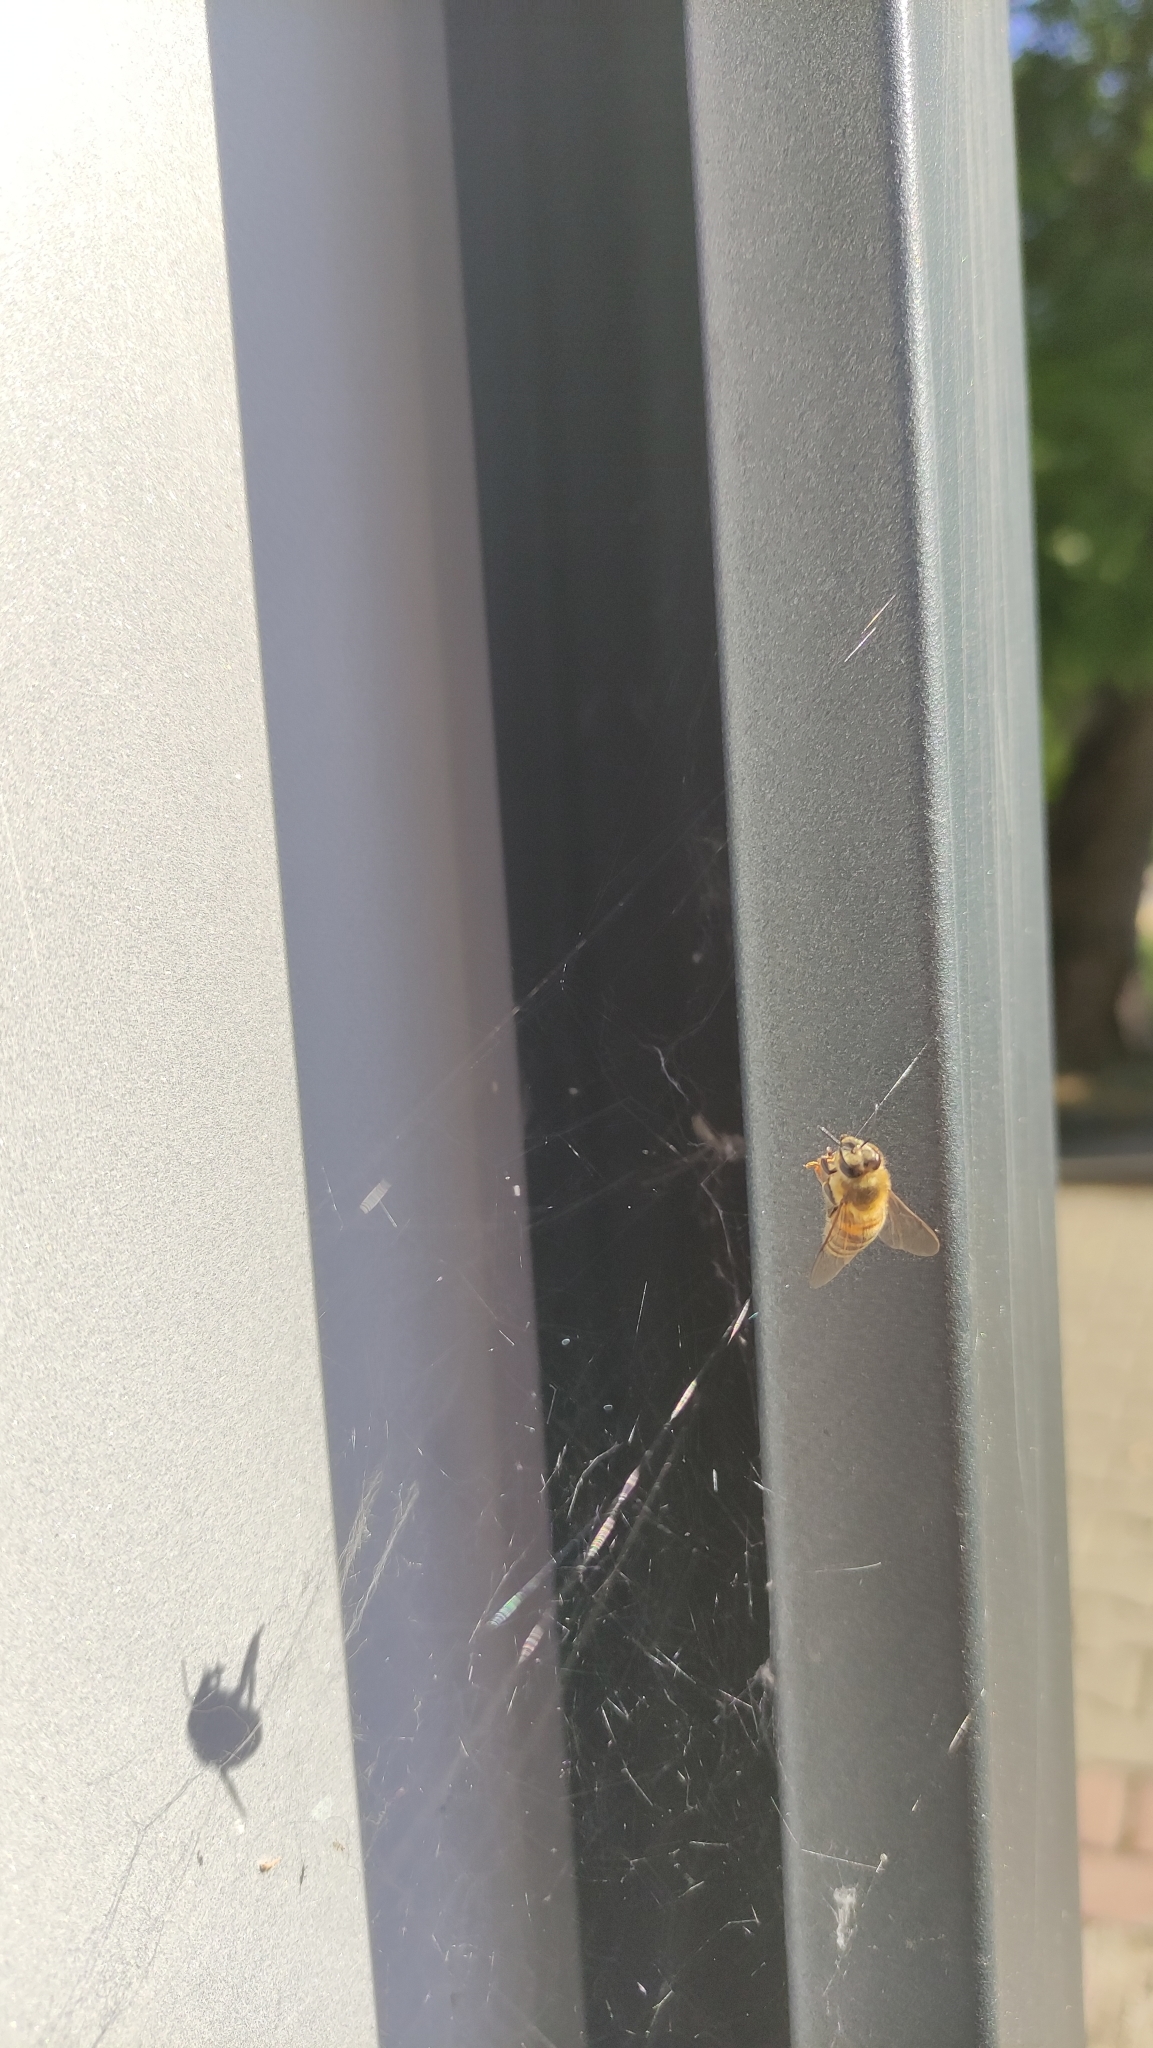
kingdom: Animalia
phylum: Arthropoda
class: Insecta
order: Hymenoptera
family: Apidae
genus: Apis
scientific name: Apis mellifera
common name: Honey bee
